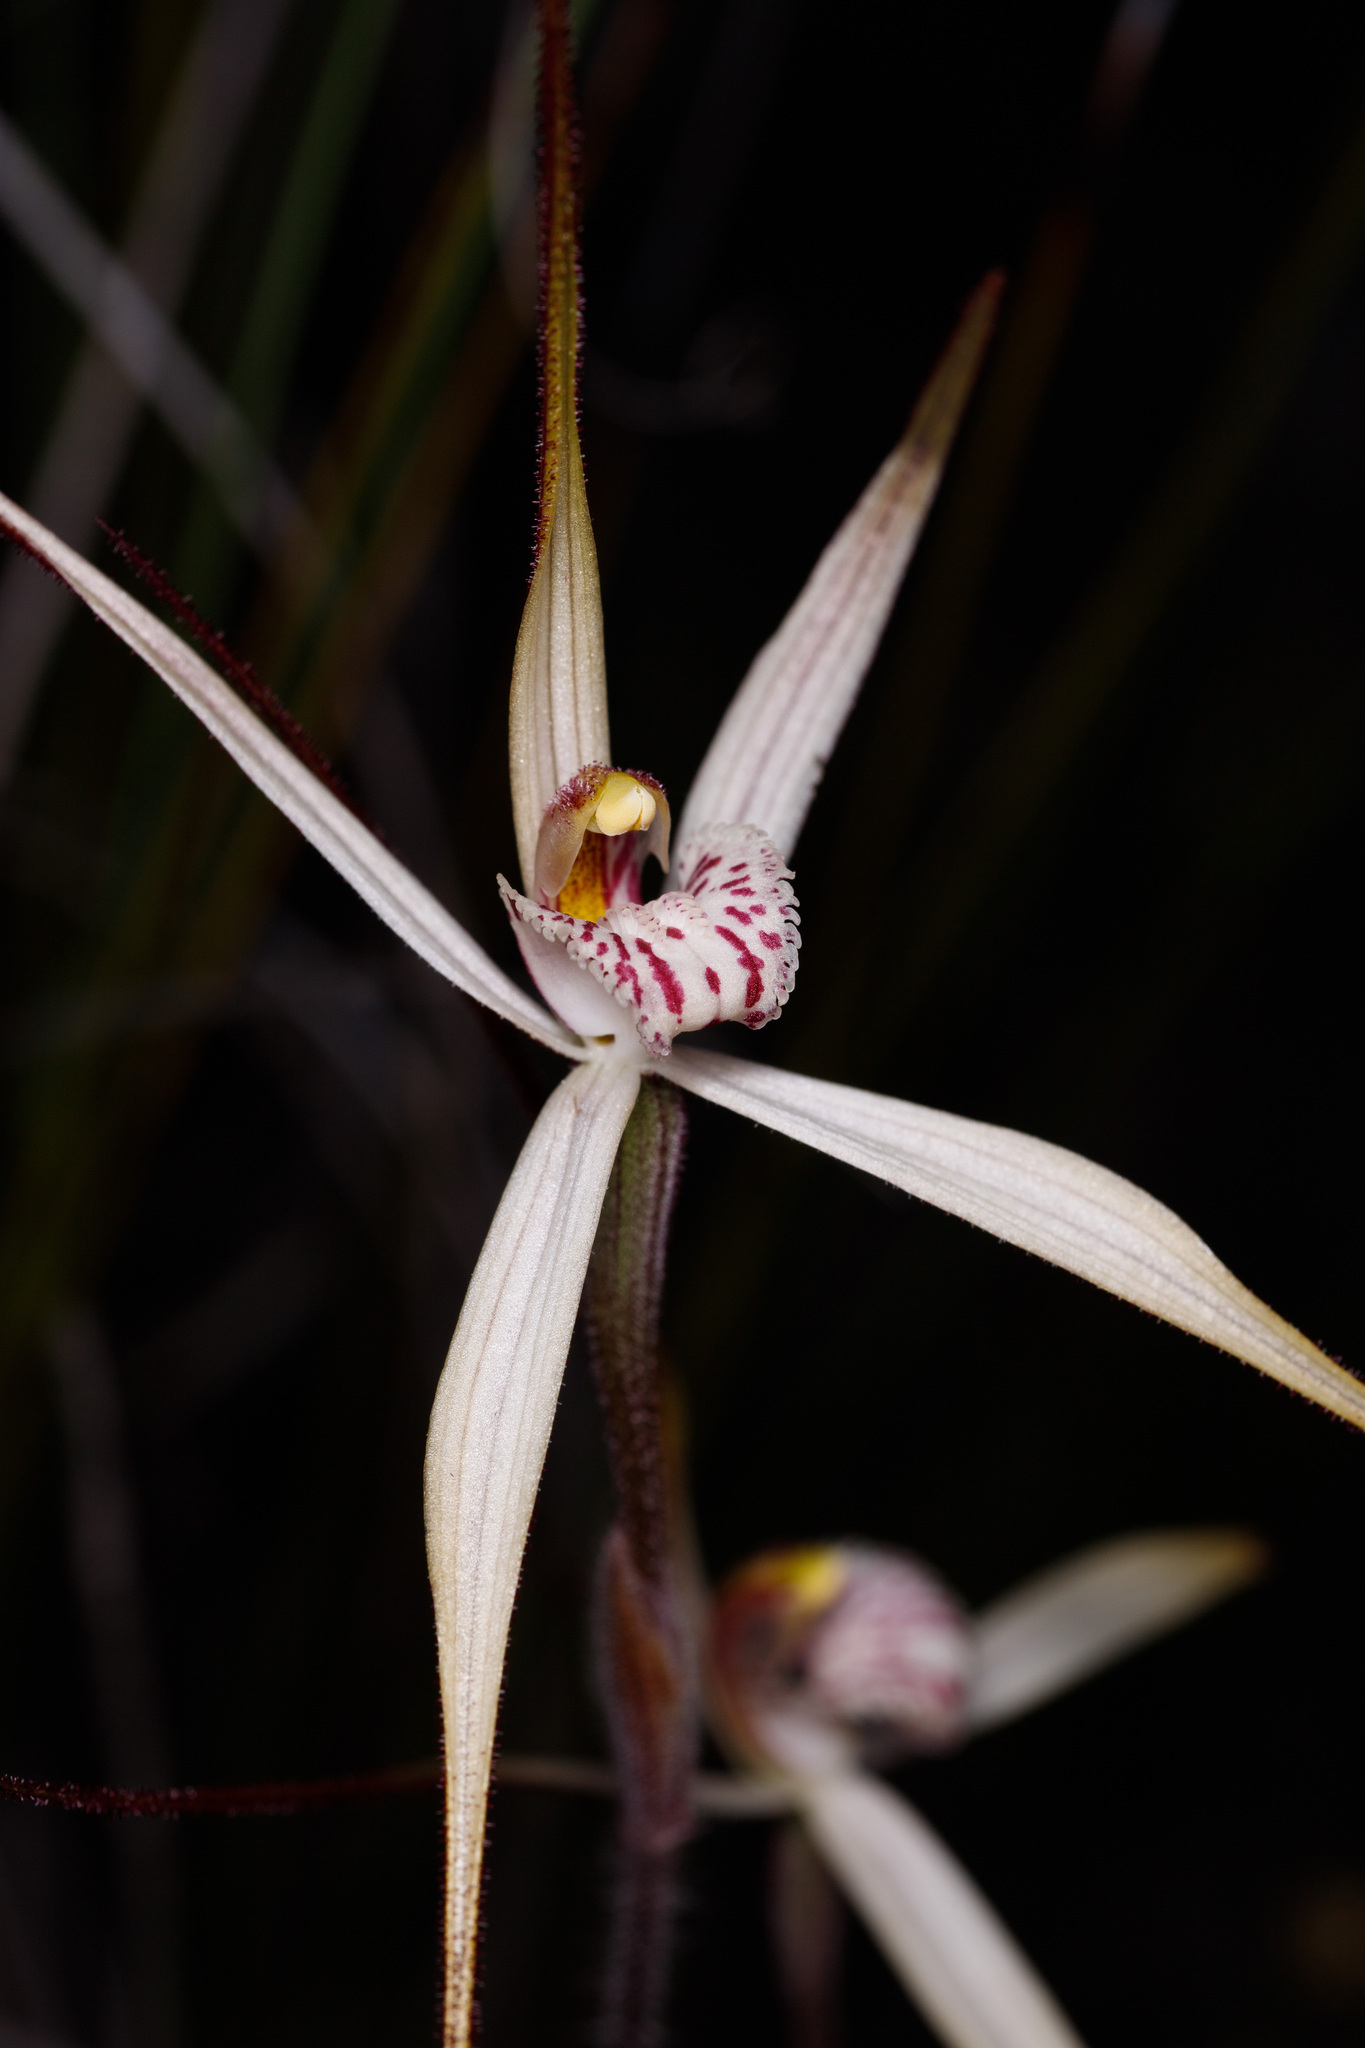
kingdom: Plantae
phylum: Tracheophyta
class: Liliopsida
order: Asparagales
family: Orchidaceae
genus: Caladenia
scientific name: Caladenia polychroma
